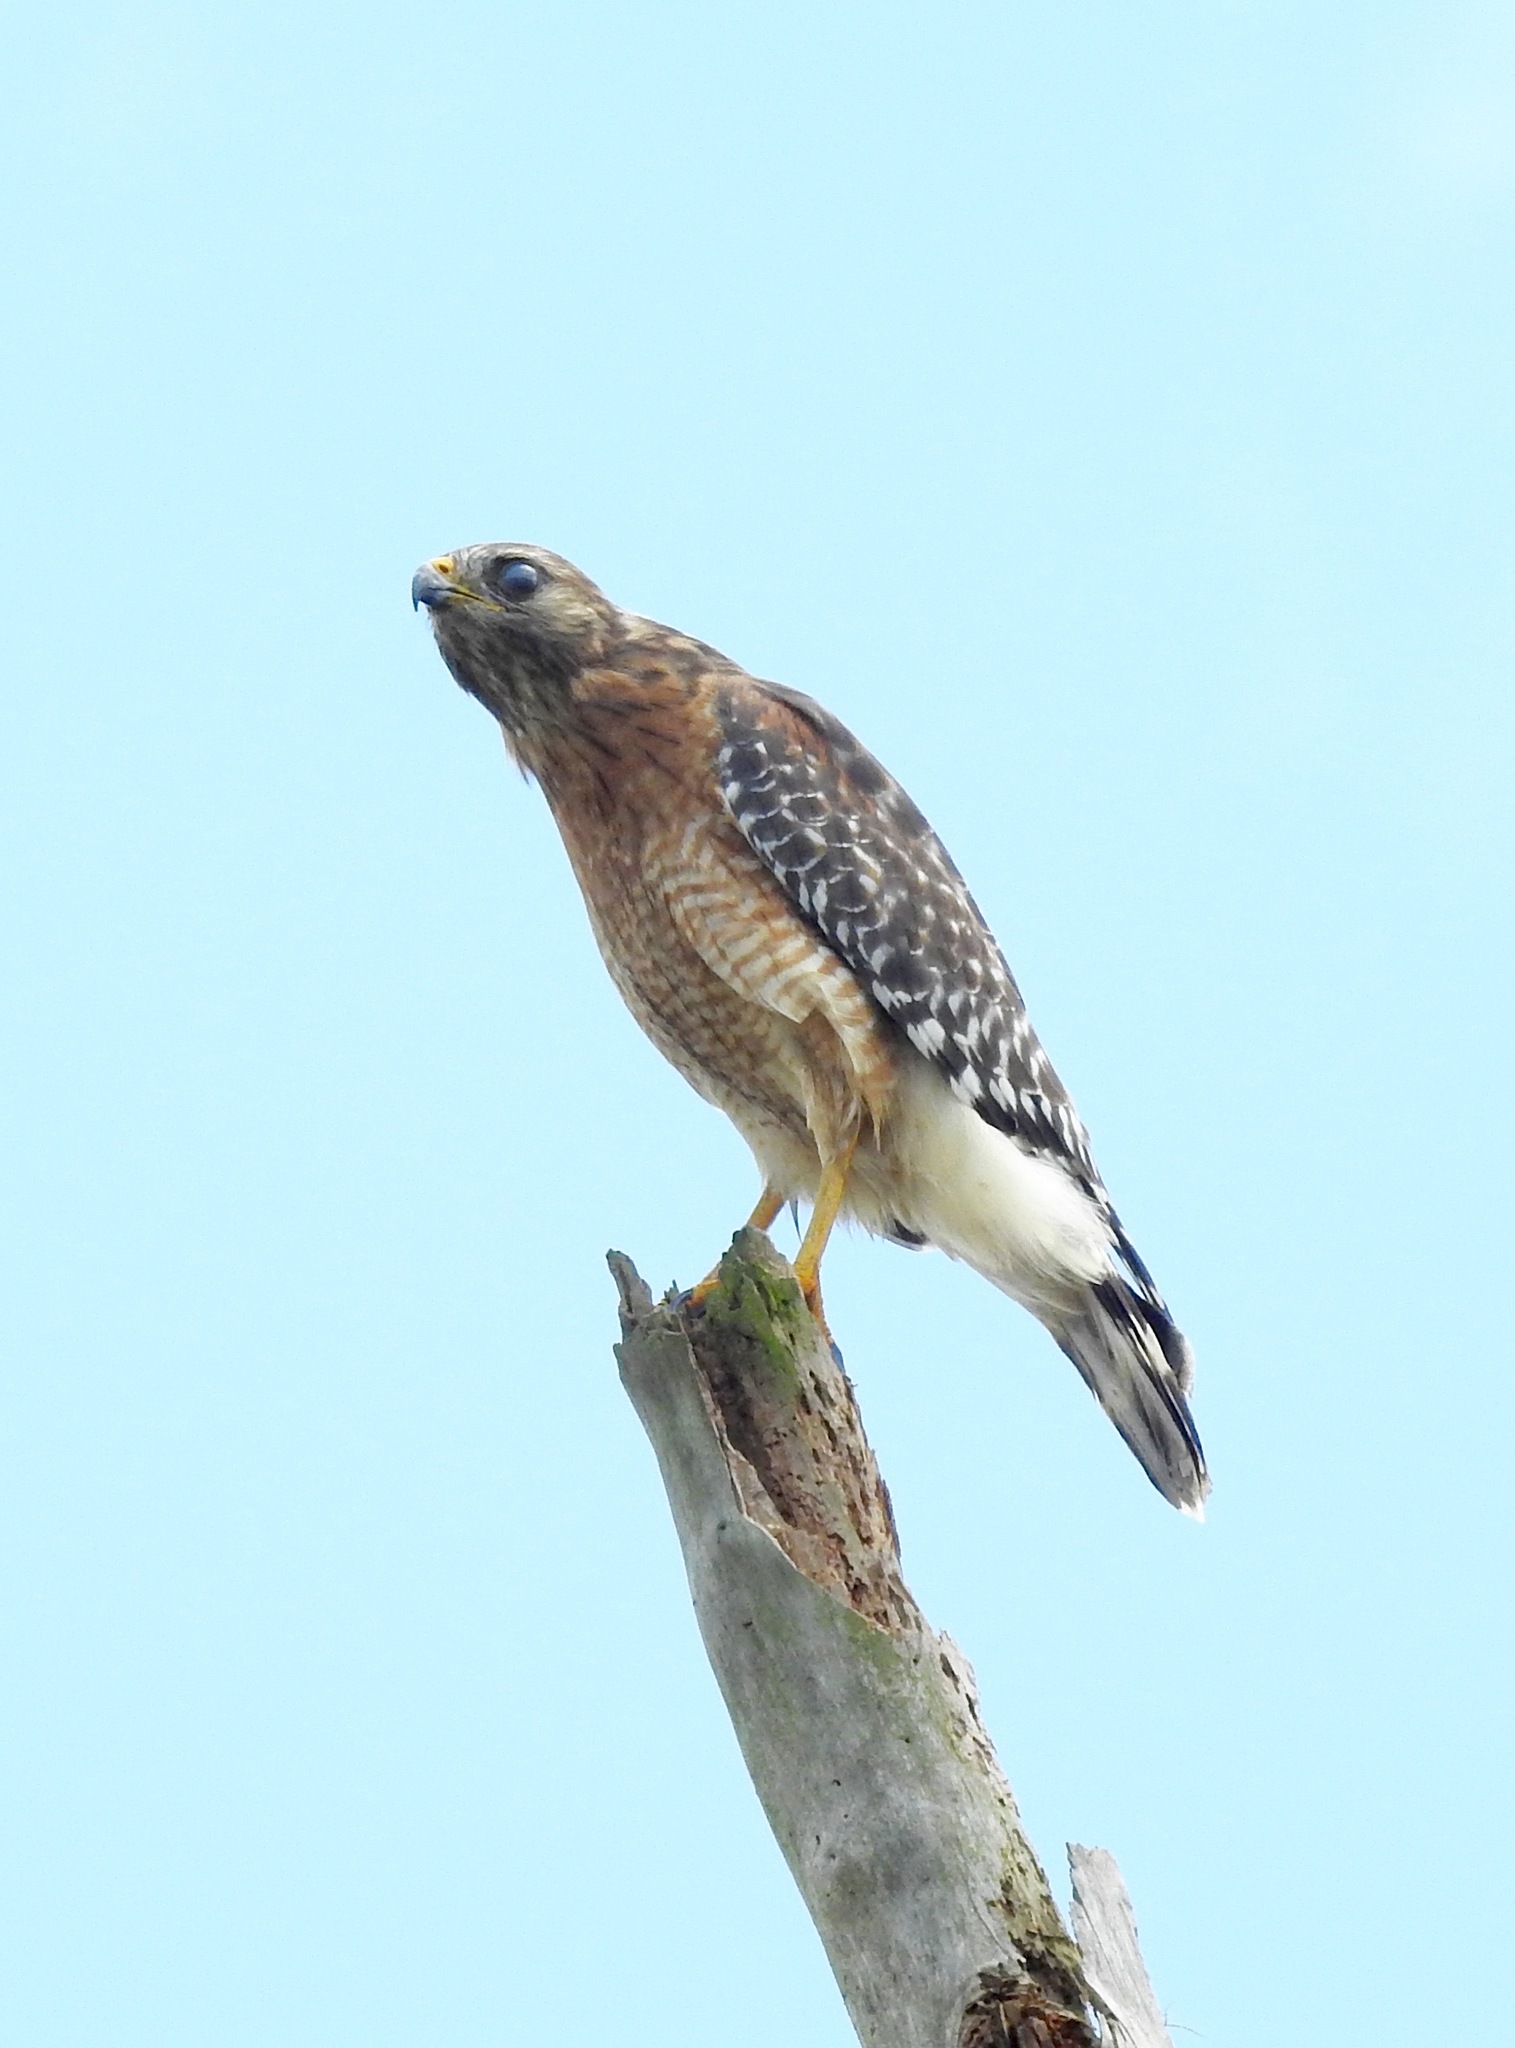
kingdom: Animalia
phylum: Chordata
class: Aves
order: Accipitriformes
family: Accipitridae
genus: Buteo
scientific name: Buteo lineatus
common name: Red-shouldered hawk
